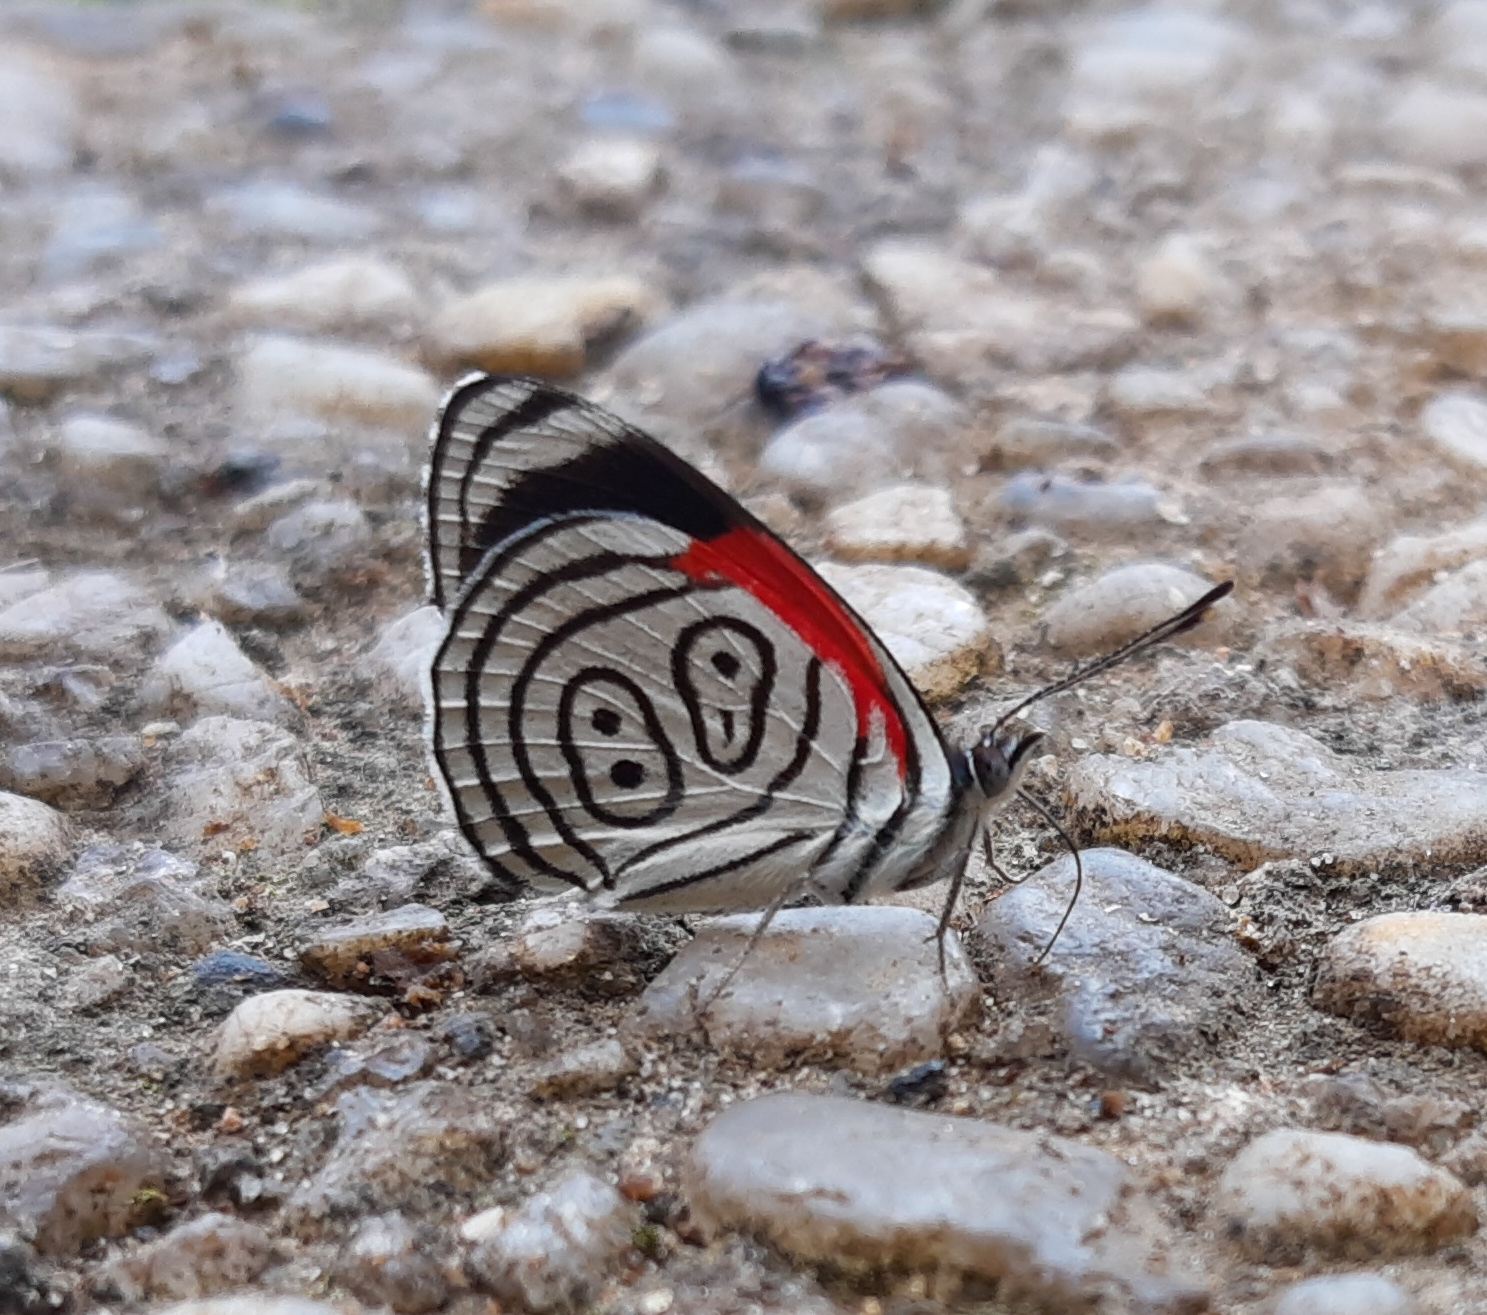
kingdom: Animalia
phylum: Arthropoda
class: Insecta
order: Lepidoptera
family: Nymphalidae
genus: Diaethria
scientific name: Diaethria clymena
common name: Widespread eighty-eight
